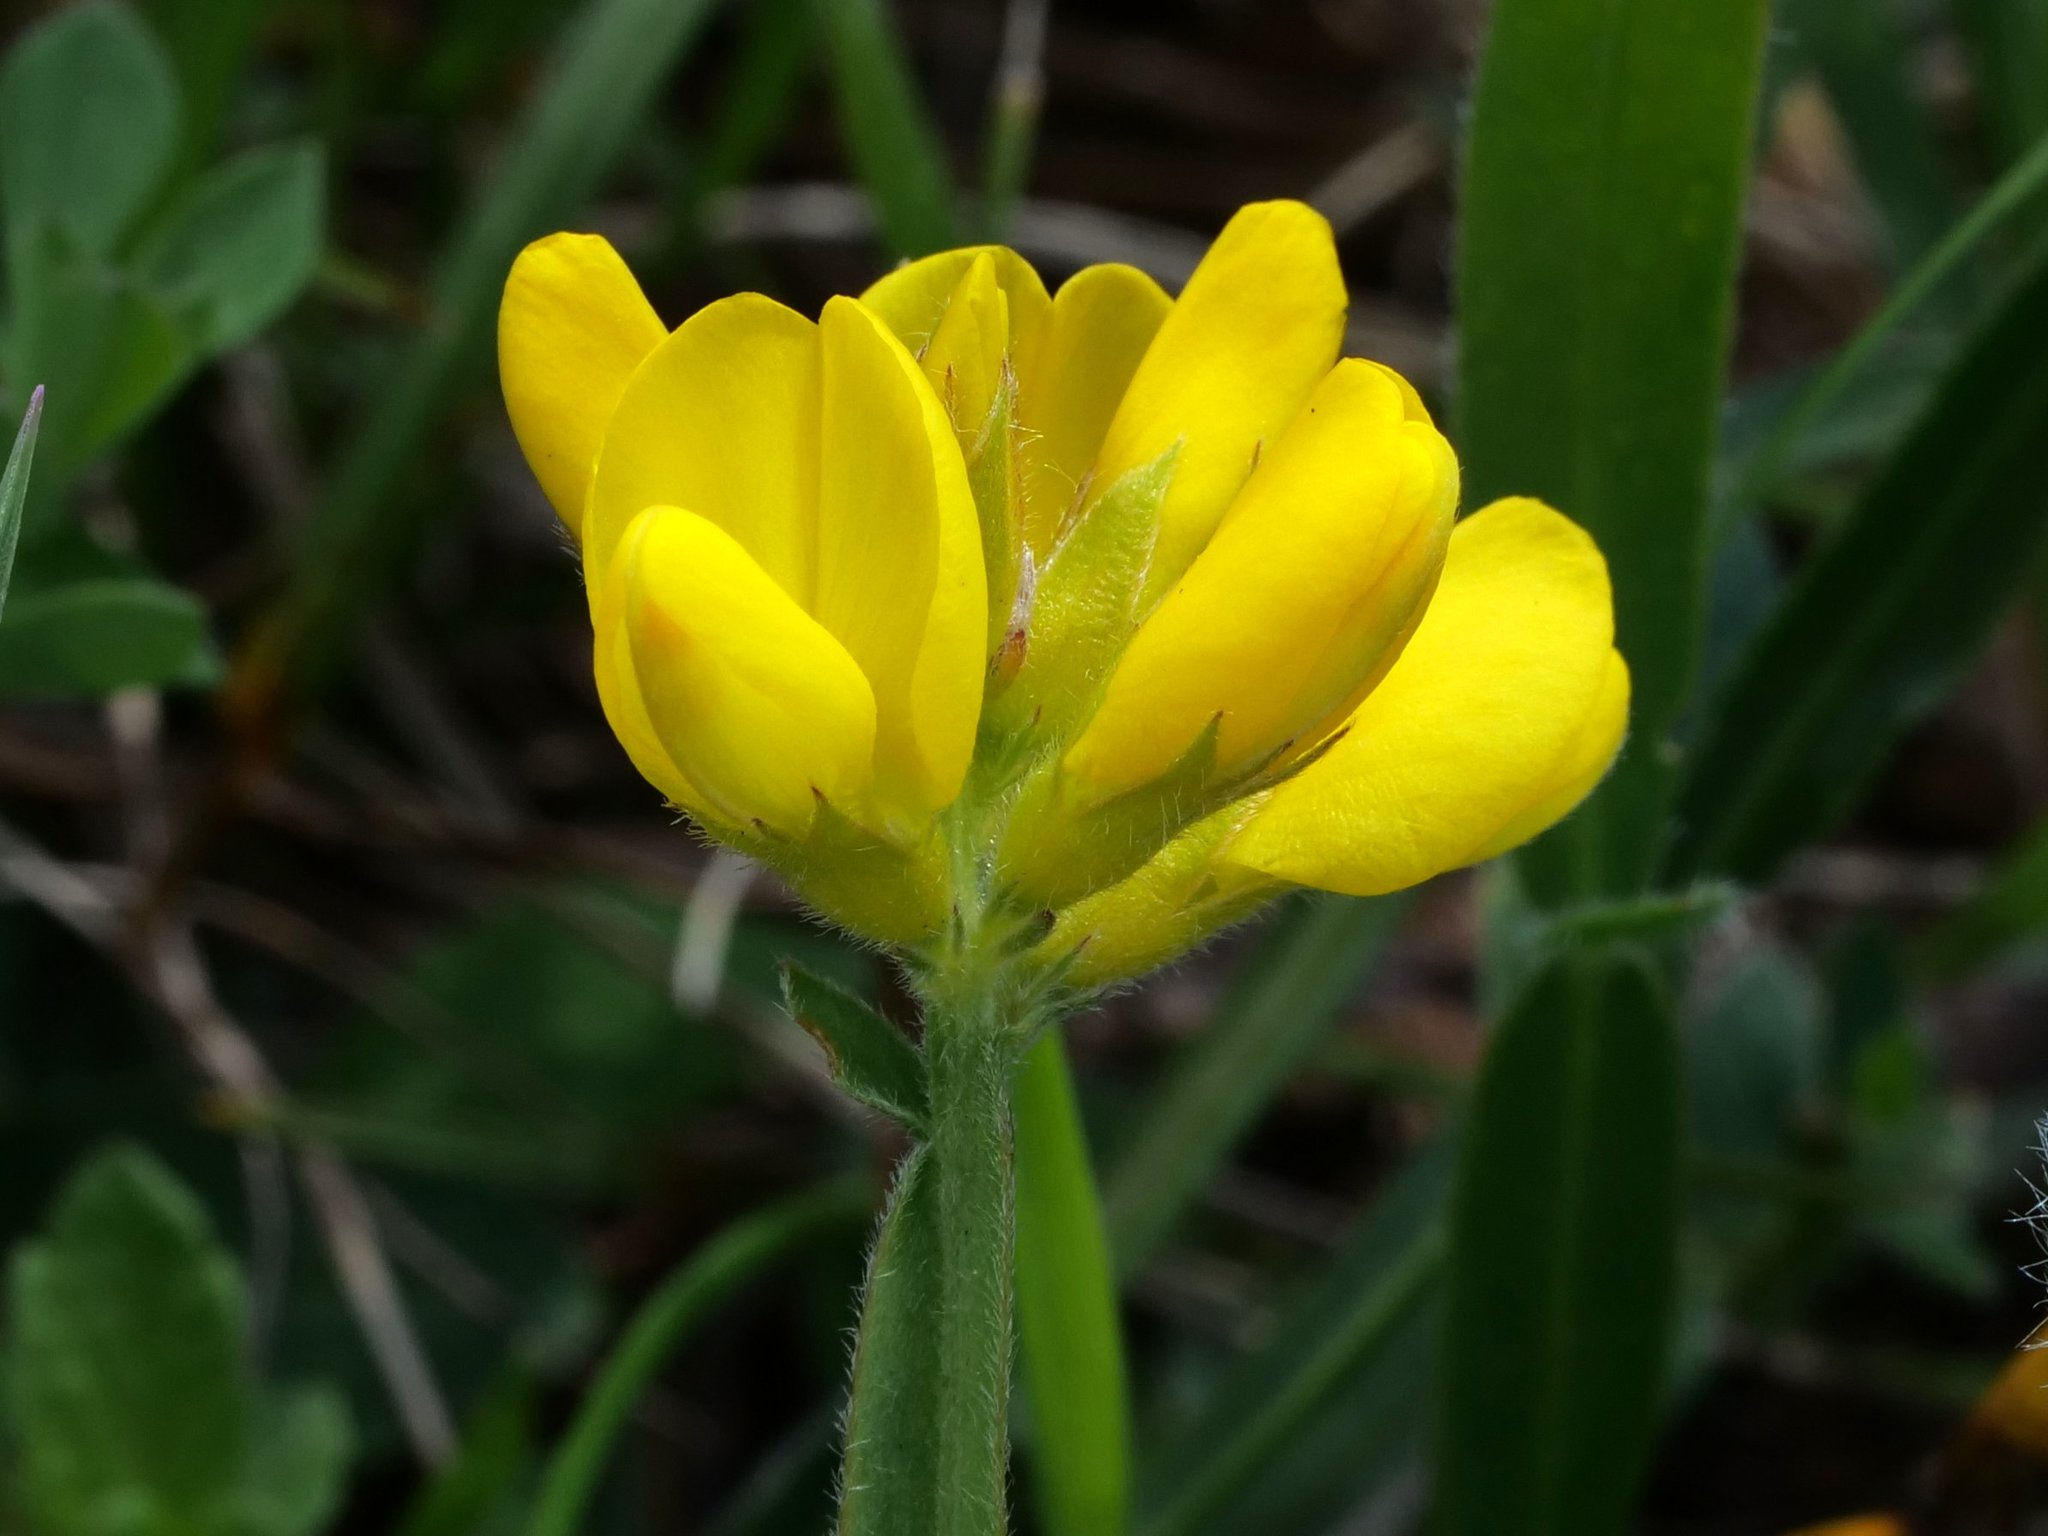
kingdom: Plantae
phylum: Tracheophyta
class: Magnoliopsida
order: Fabales
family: Fabaceae
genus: Genista
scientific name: Genista sagittalis
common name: Winged greenweed
